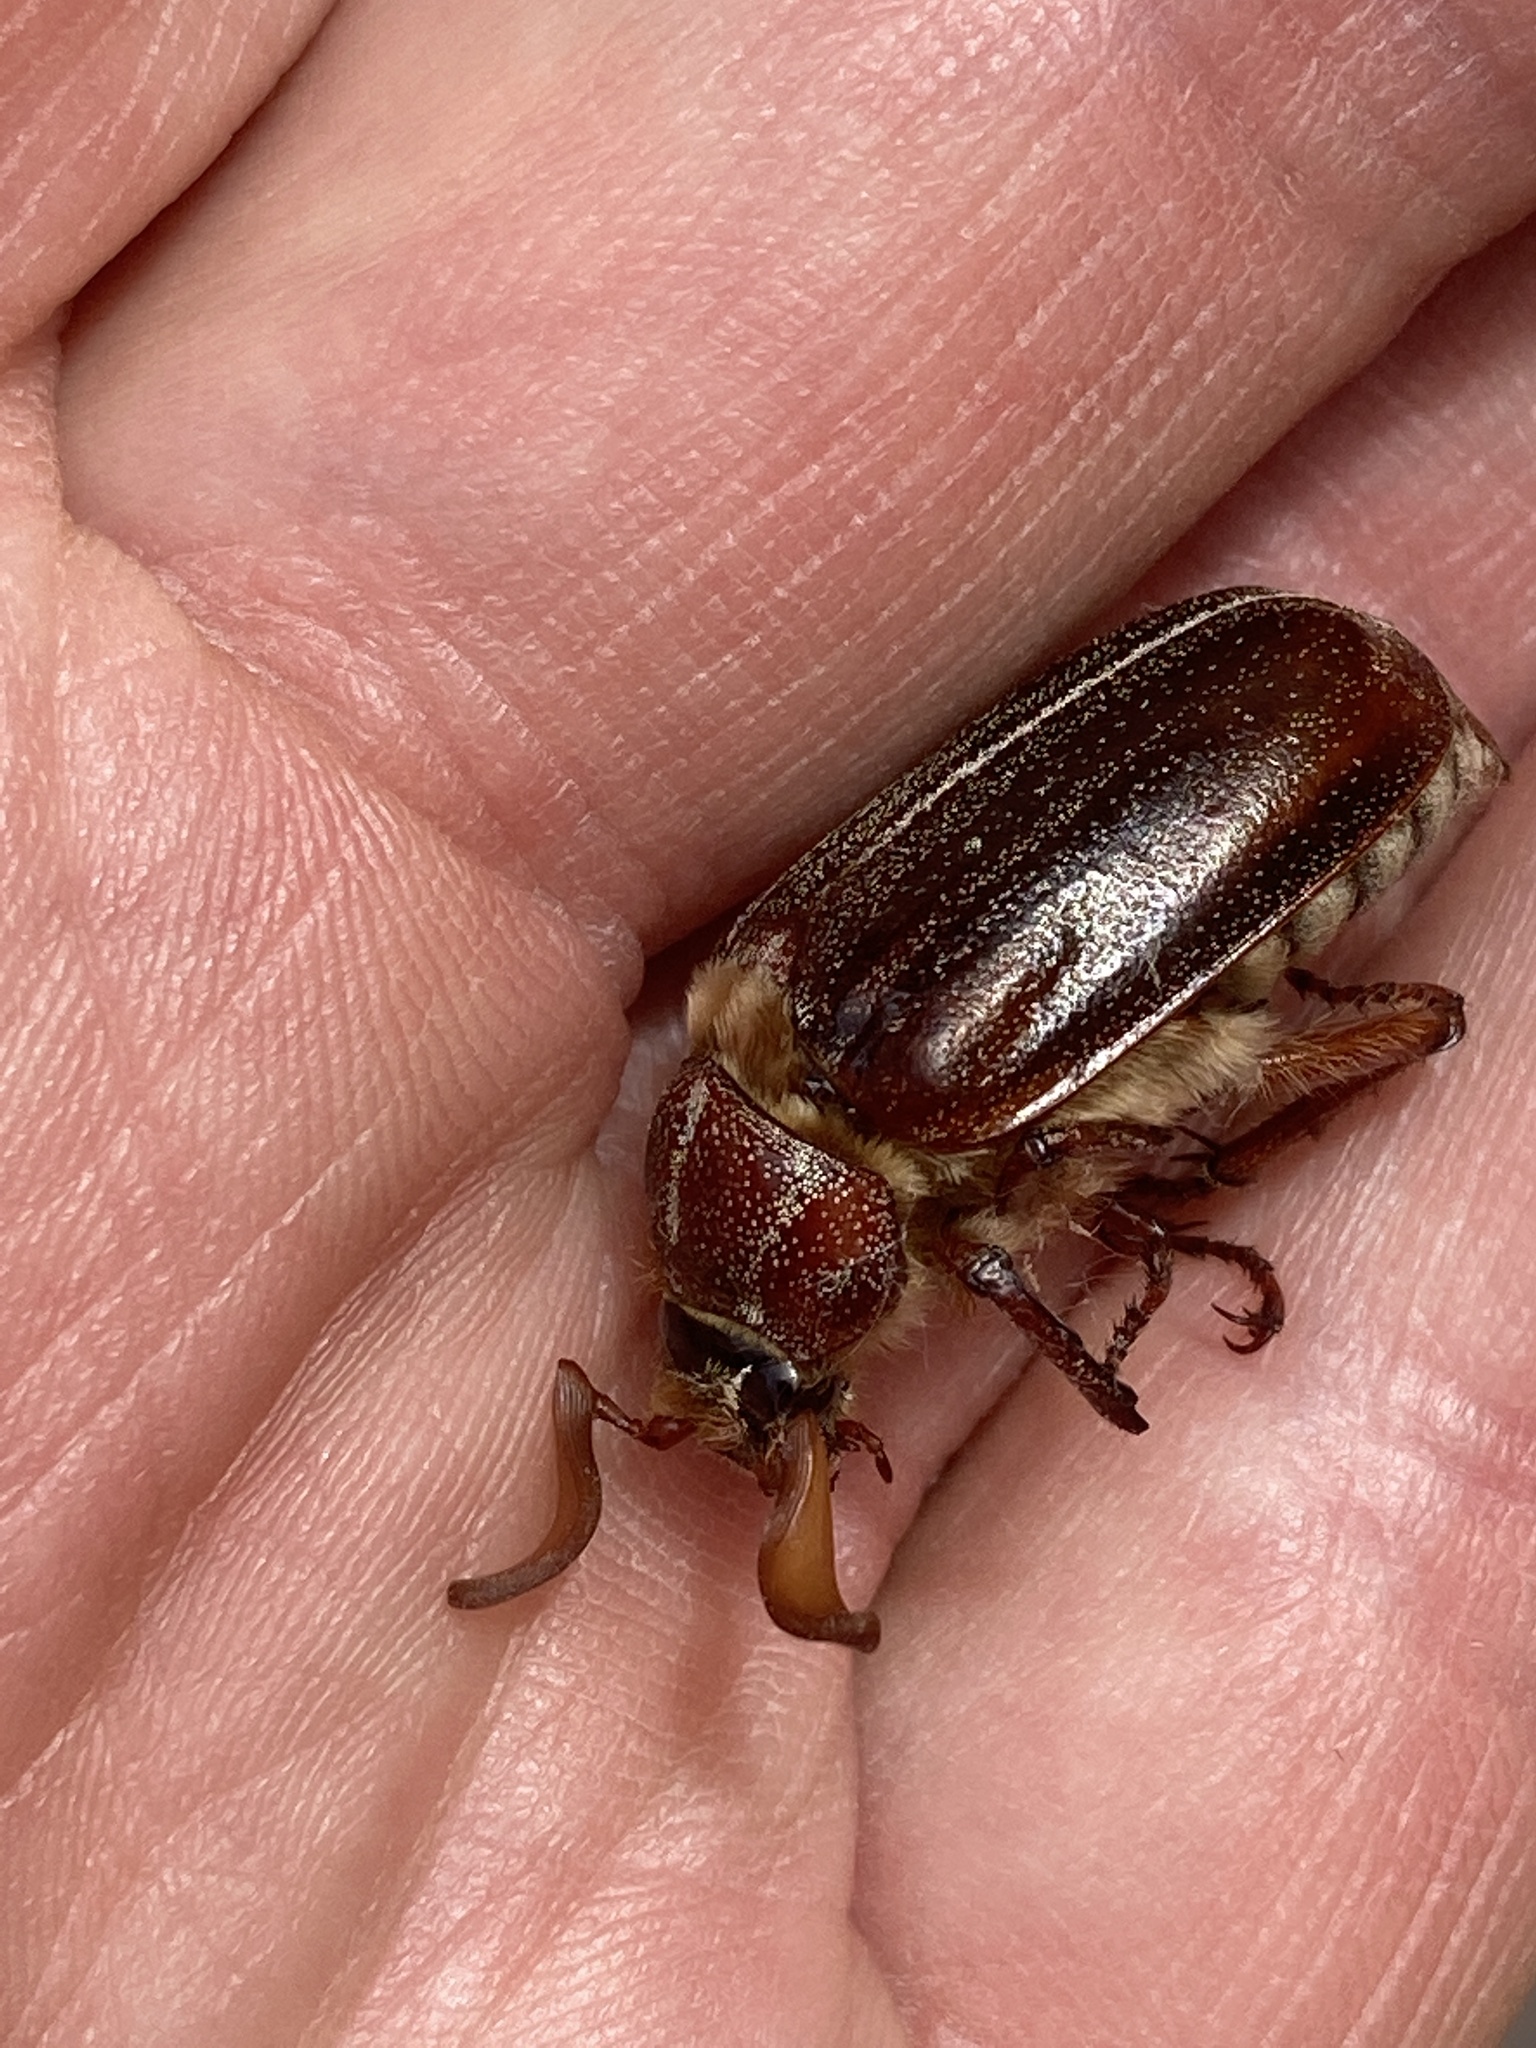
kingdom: Animalia
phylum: Arthropoda
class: Insecta
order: Coleoptera
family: Scarabaeidae
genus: Polyphylla
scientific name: Polyphylla hammondi
